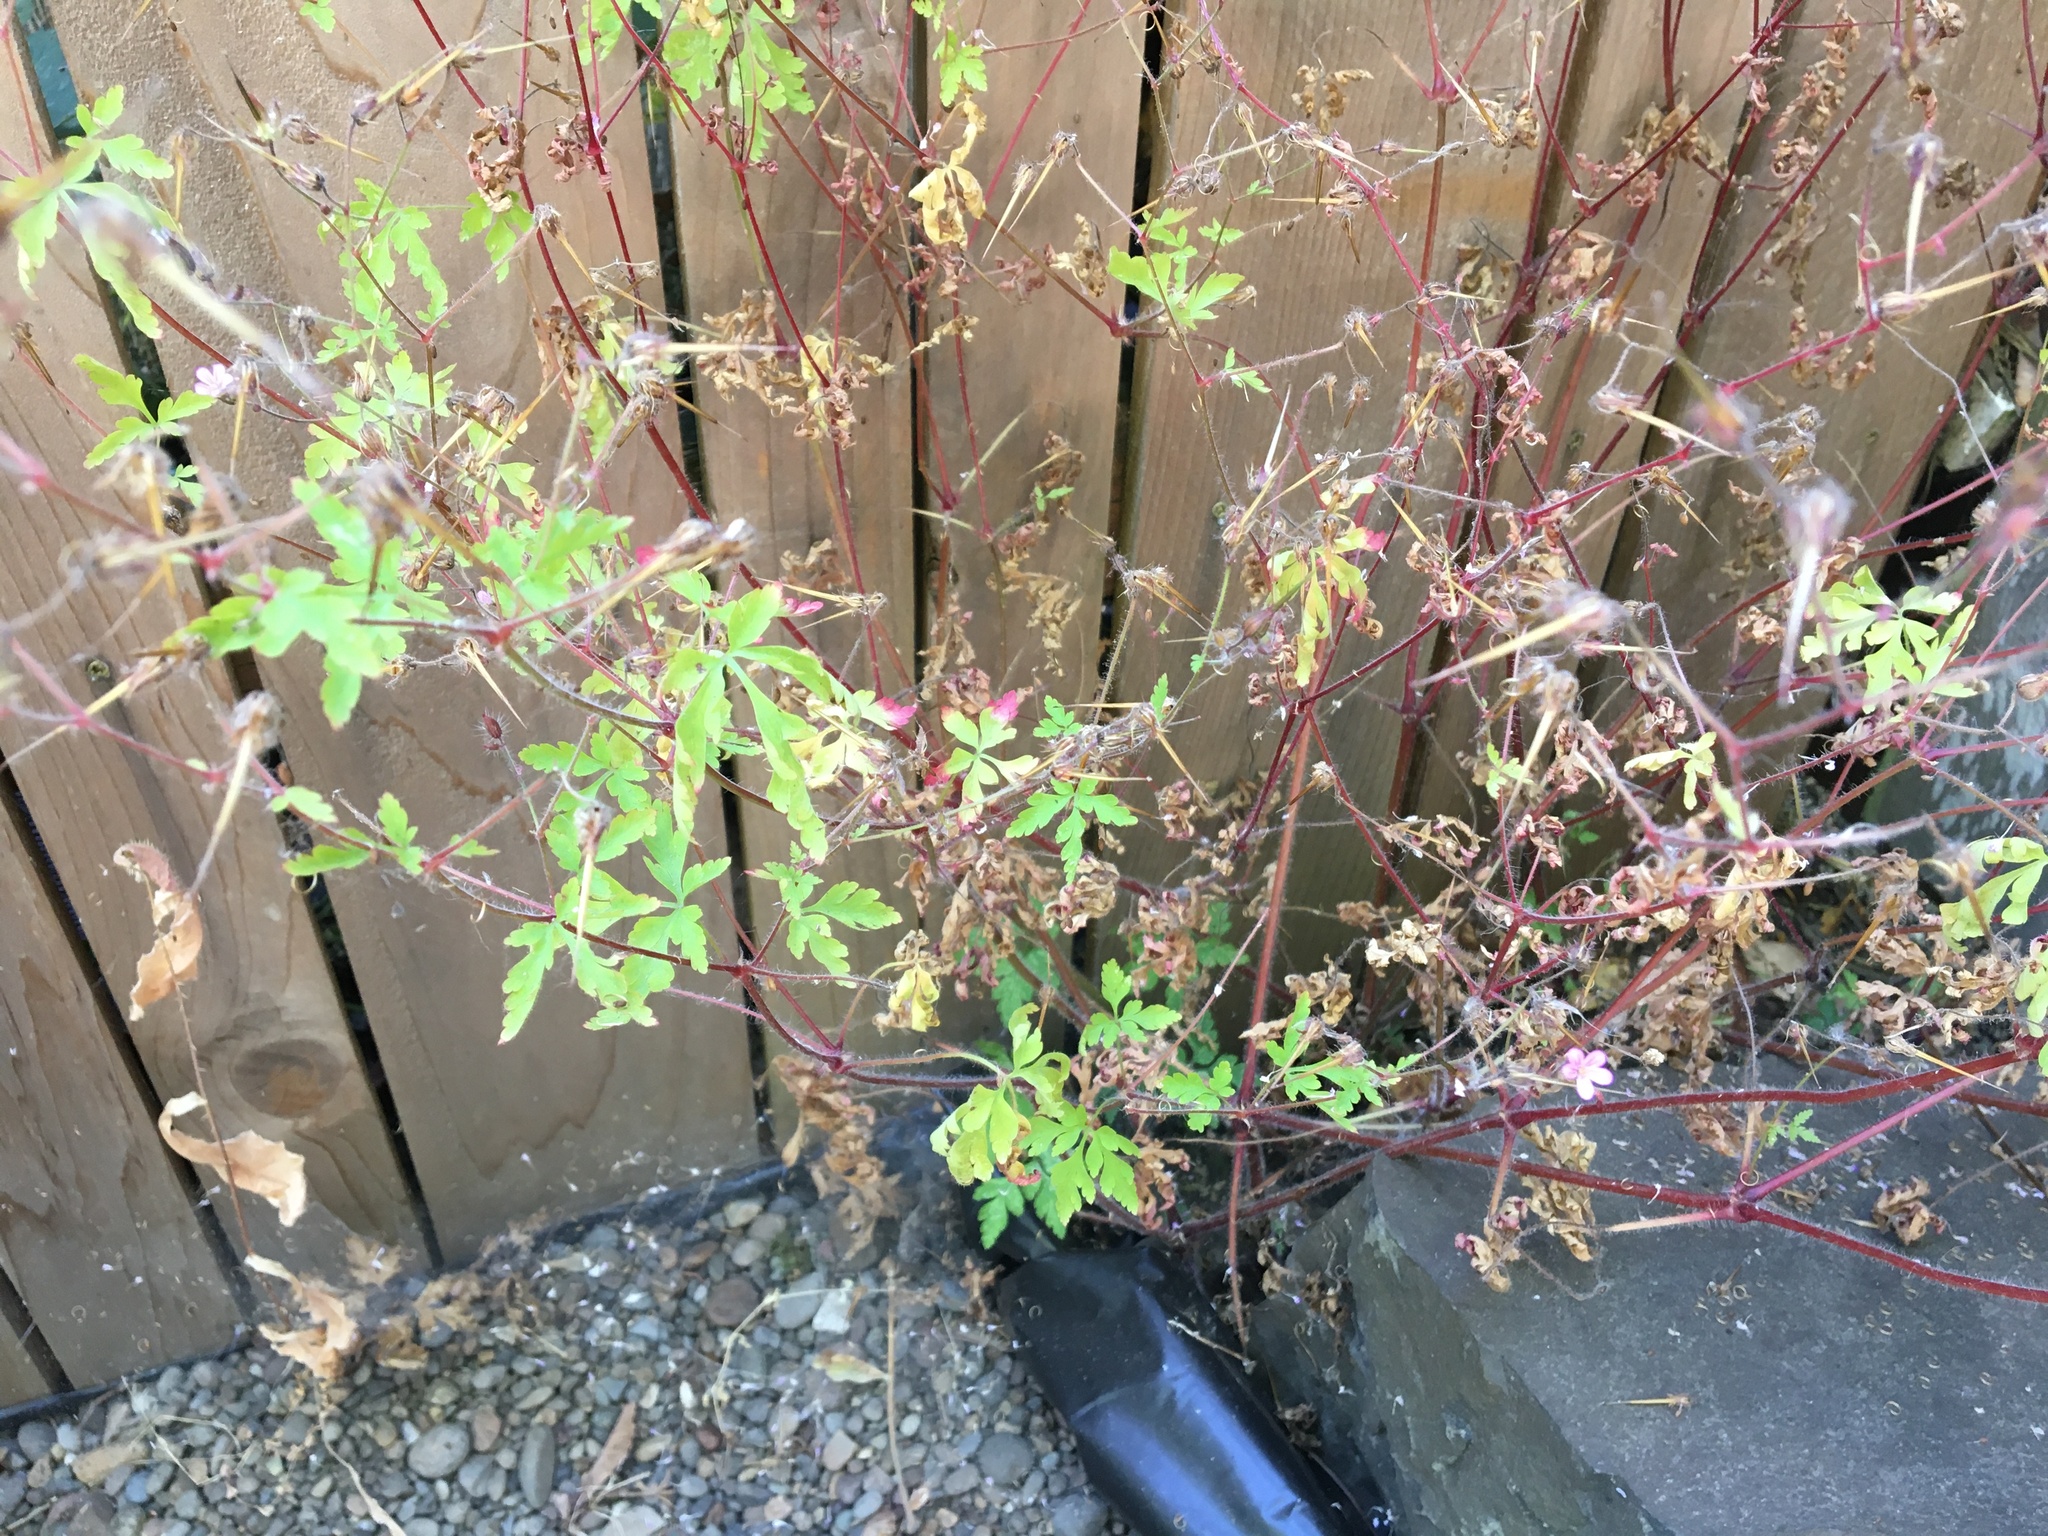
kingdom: Plantae
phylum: Tracheophyta
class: Magnoliopsida
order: Geraniales
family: Geraniaceae
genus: Geranium
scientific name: Geranium robertianum
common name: Herb-robert
